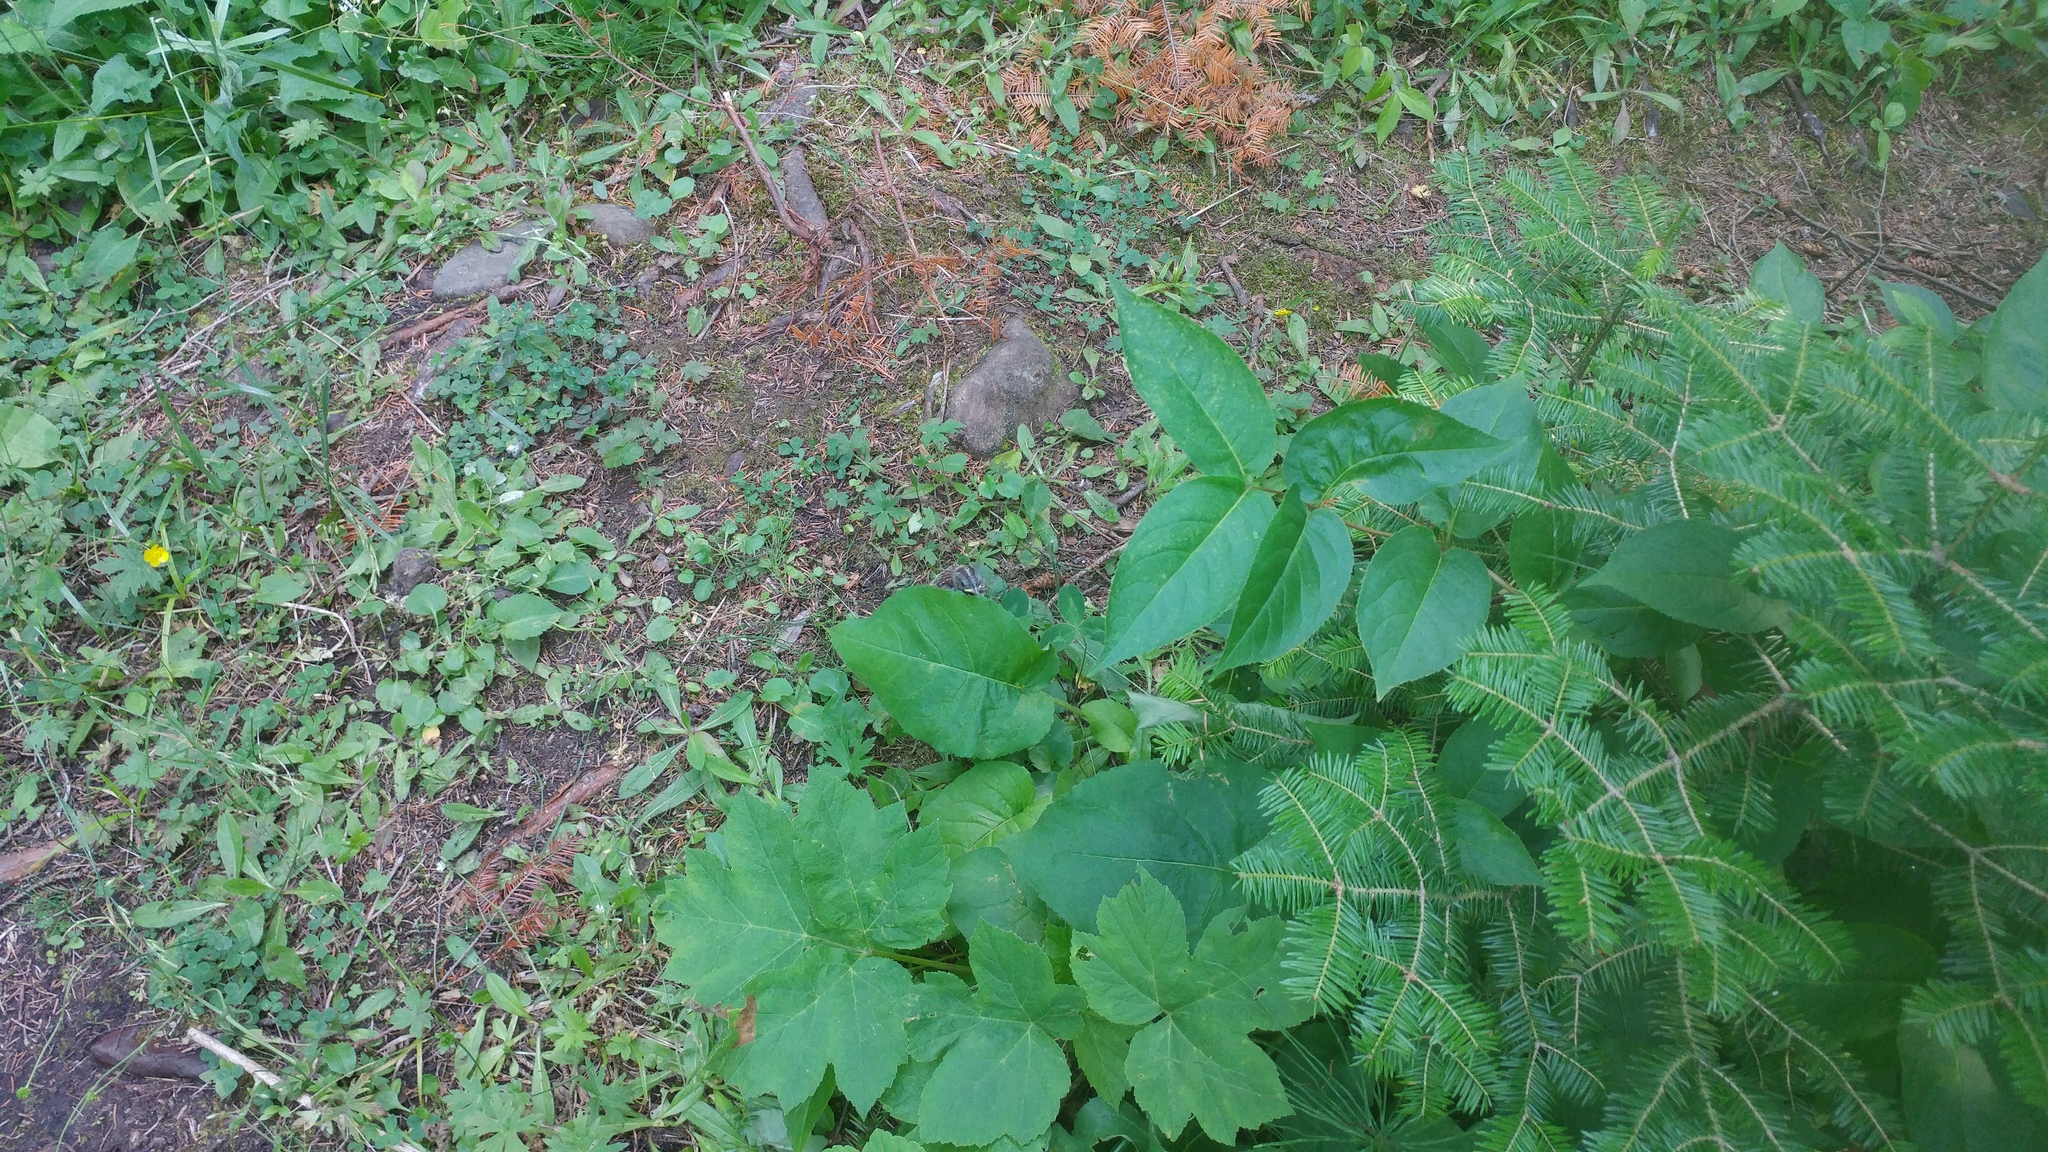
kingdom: Animalia
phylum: Chordata
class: Aves
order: Passeriformes
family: Passerellidae
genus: Zonotrichia
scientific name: Zonotrichia leucophrys
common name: White-crowned sparrow
